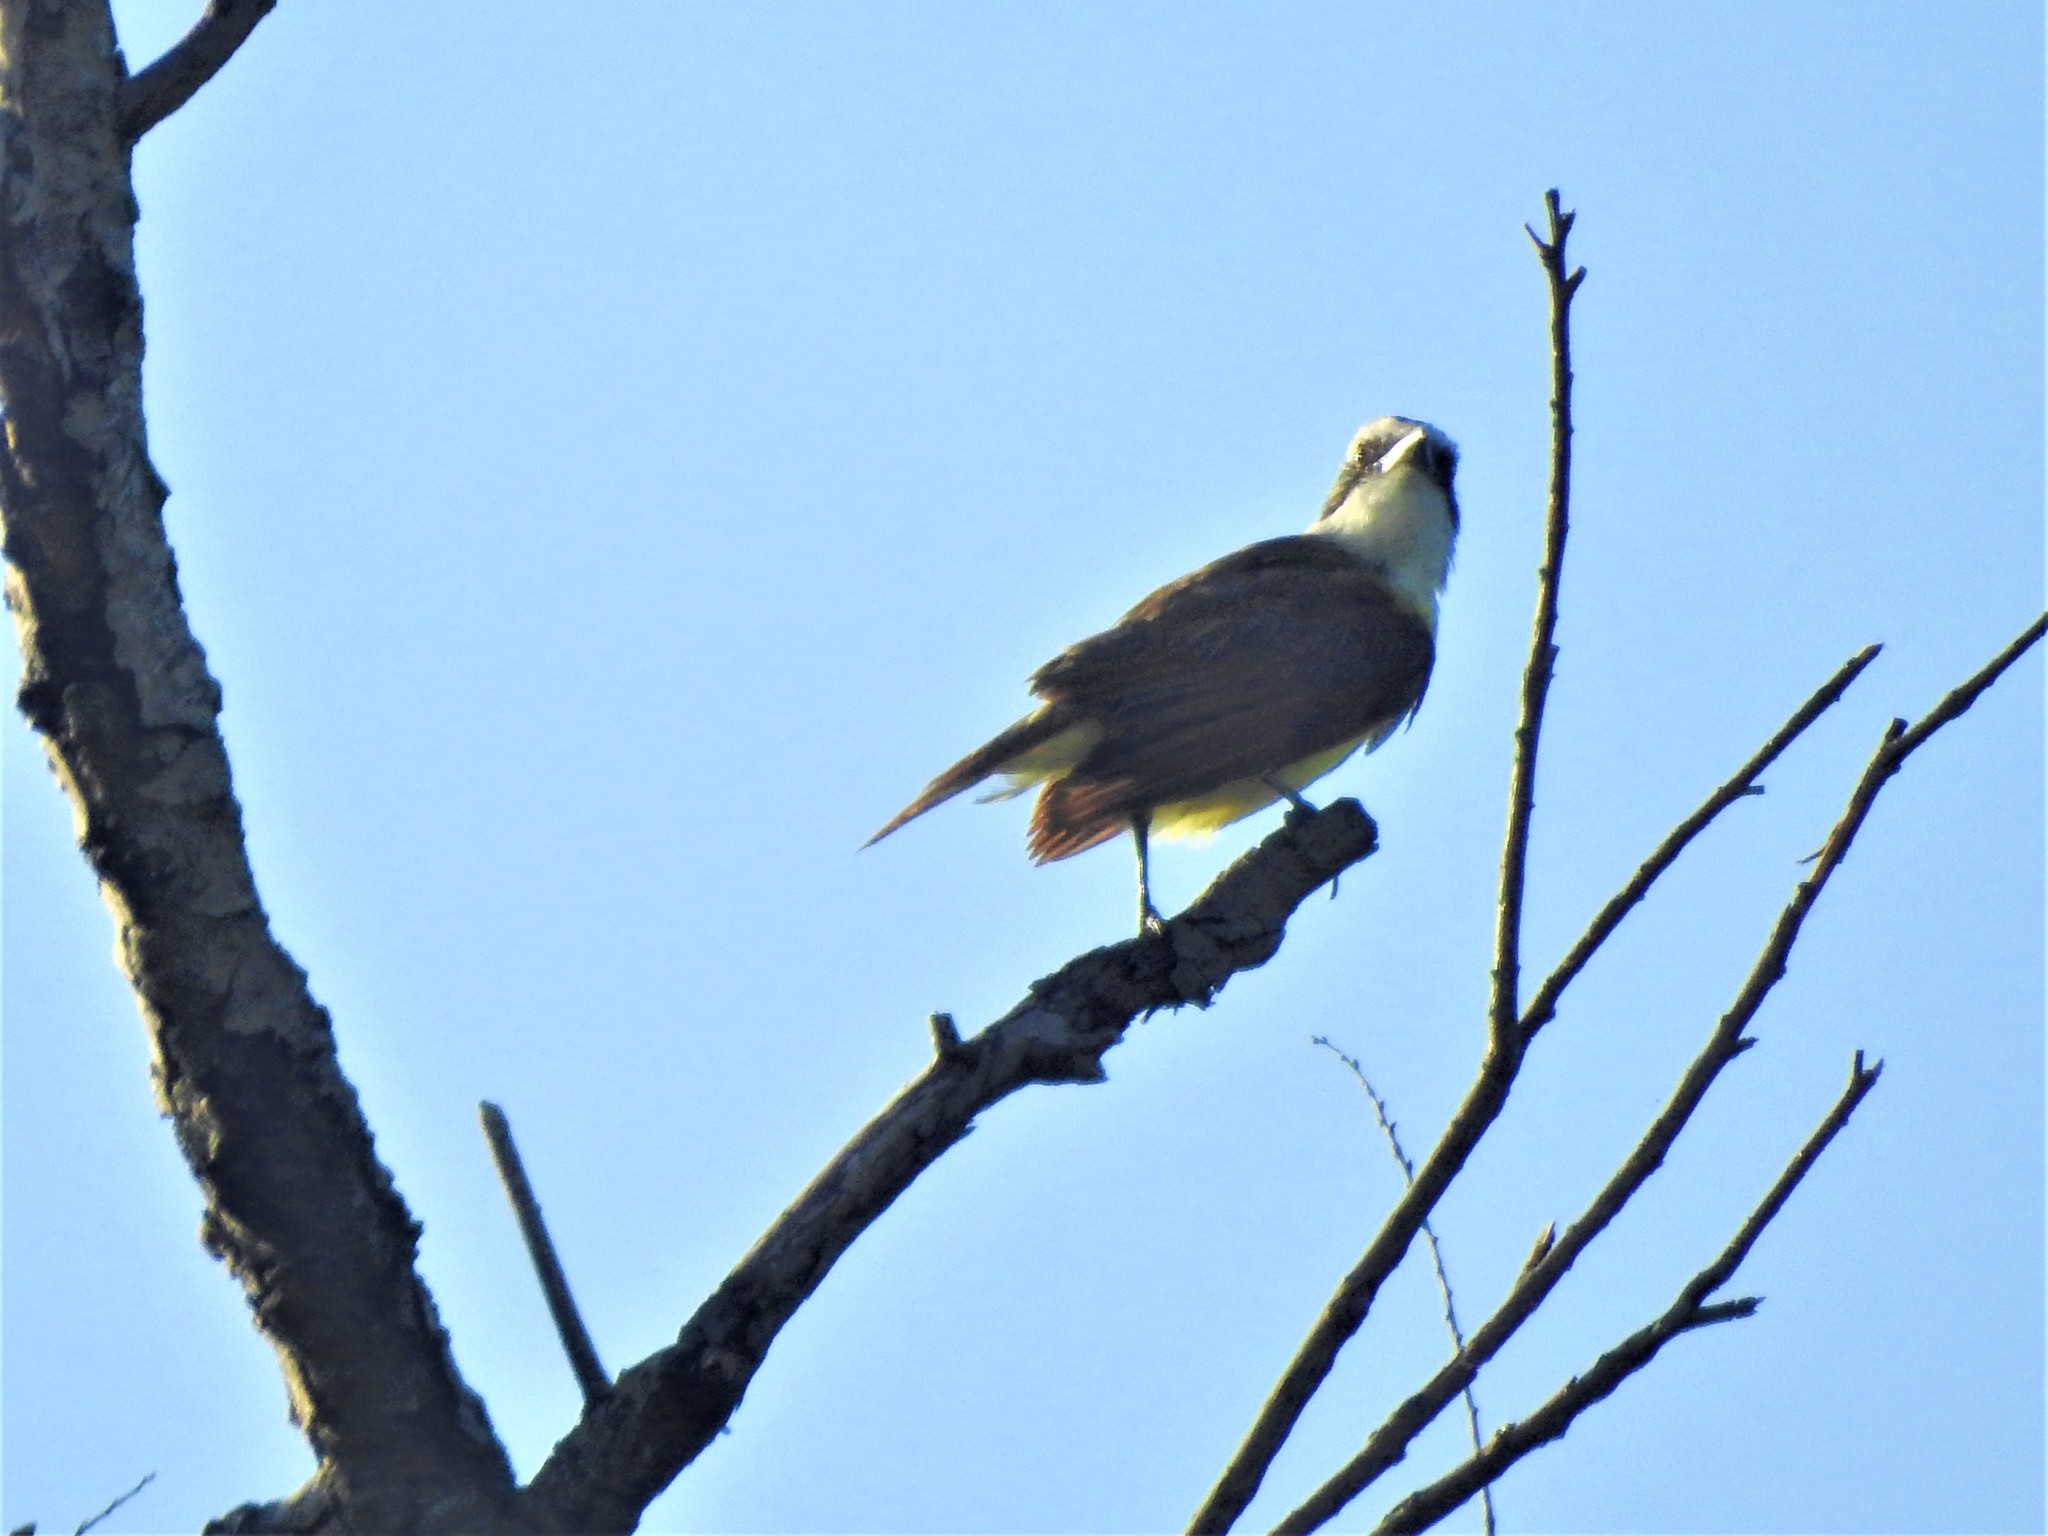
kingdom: Animalia
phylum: Chordata
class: Aves
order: Passeriformes
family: Tyrannidae
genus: Pitangus
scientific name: Pitangus sulphuratus
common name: Great kiskadee
